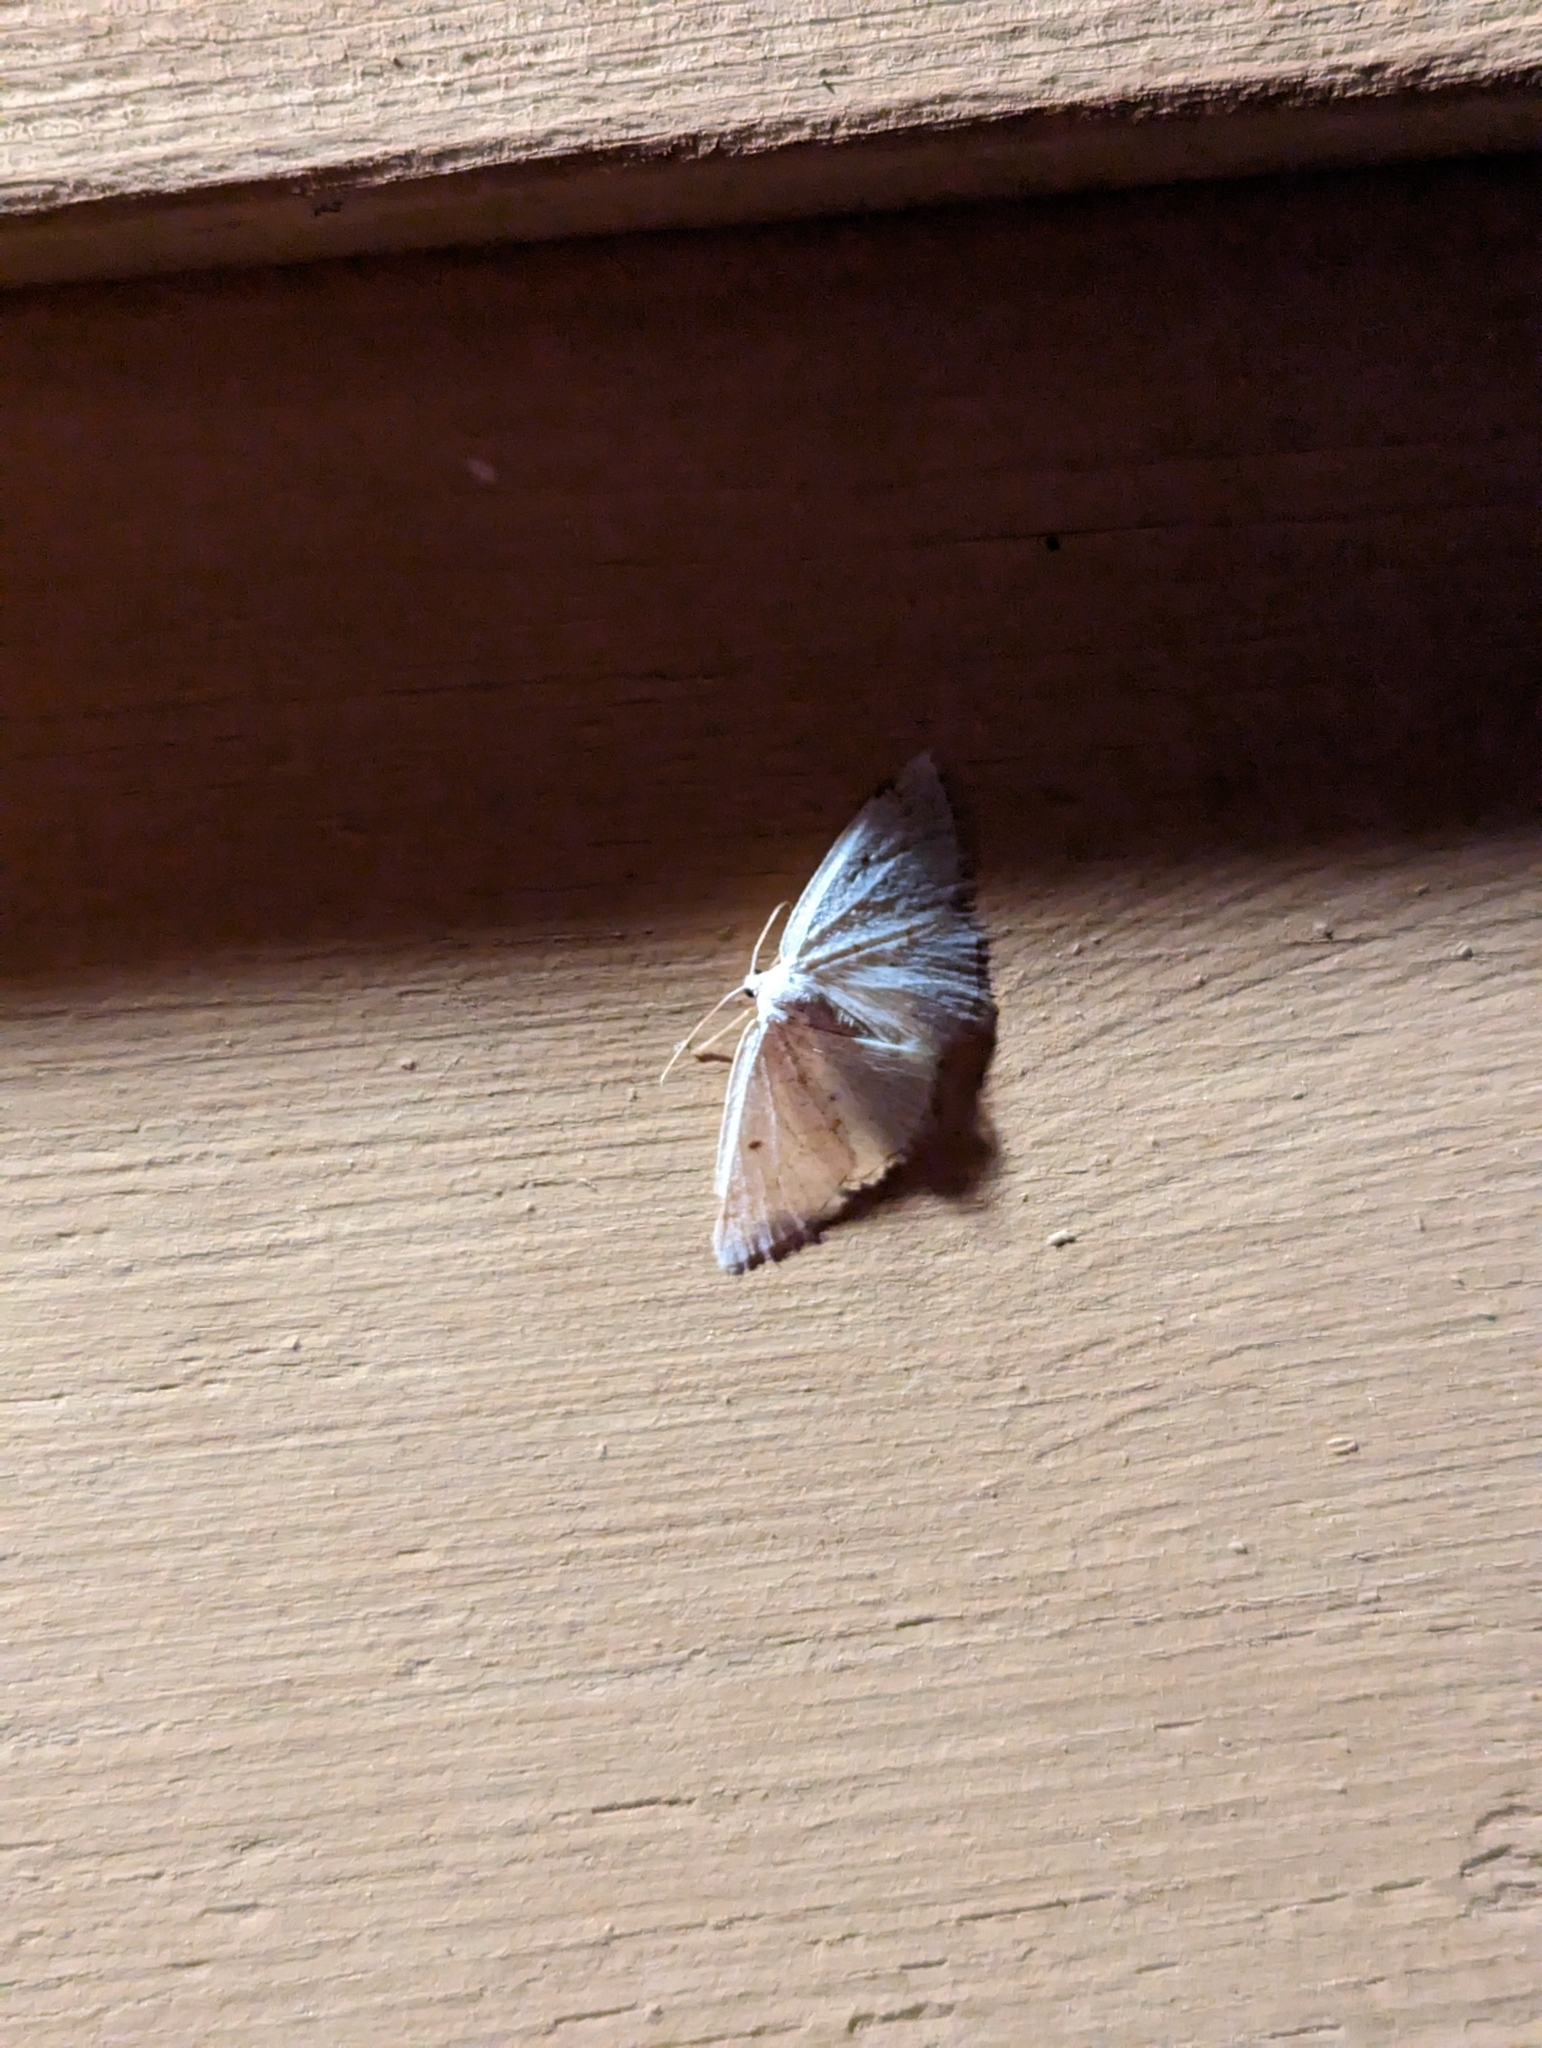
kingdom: Animalia
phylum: Arthropoda
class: Insecta
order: Lepidoptera
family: Geometridae
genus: Lomographa
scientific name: Lomographa glomeraria
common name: Gray spring moth
